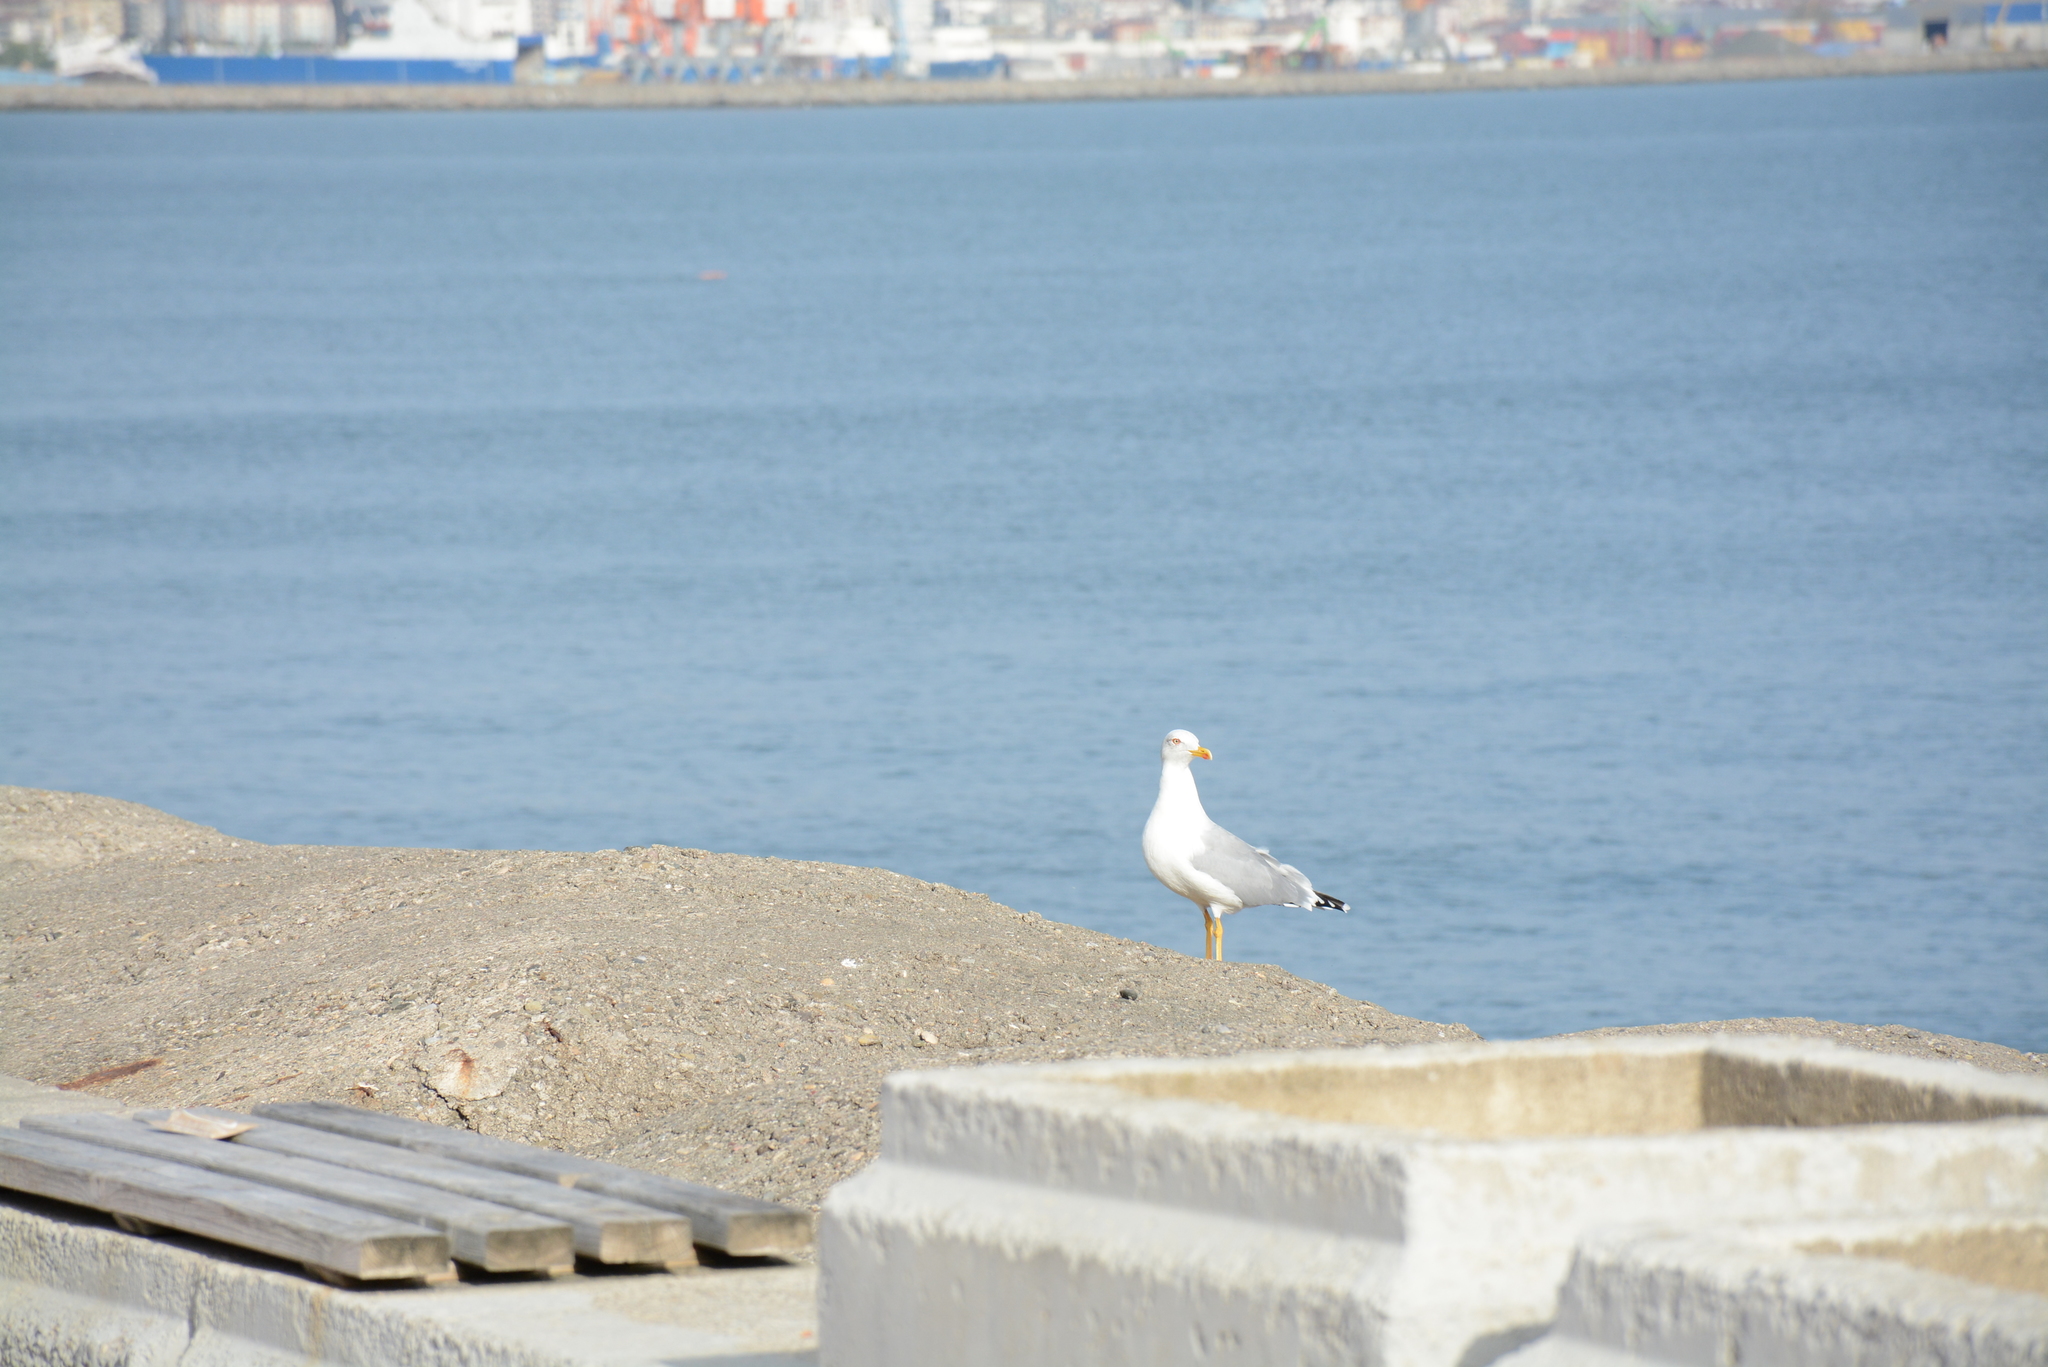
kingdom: Animalia
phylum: Chordata
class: Aves
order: Charadriiformes
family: Laridae
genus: Larus
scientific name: Larus michahellis
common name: Yellow-legged gull
